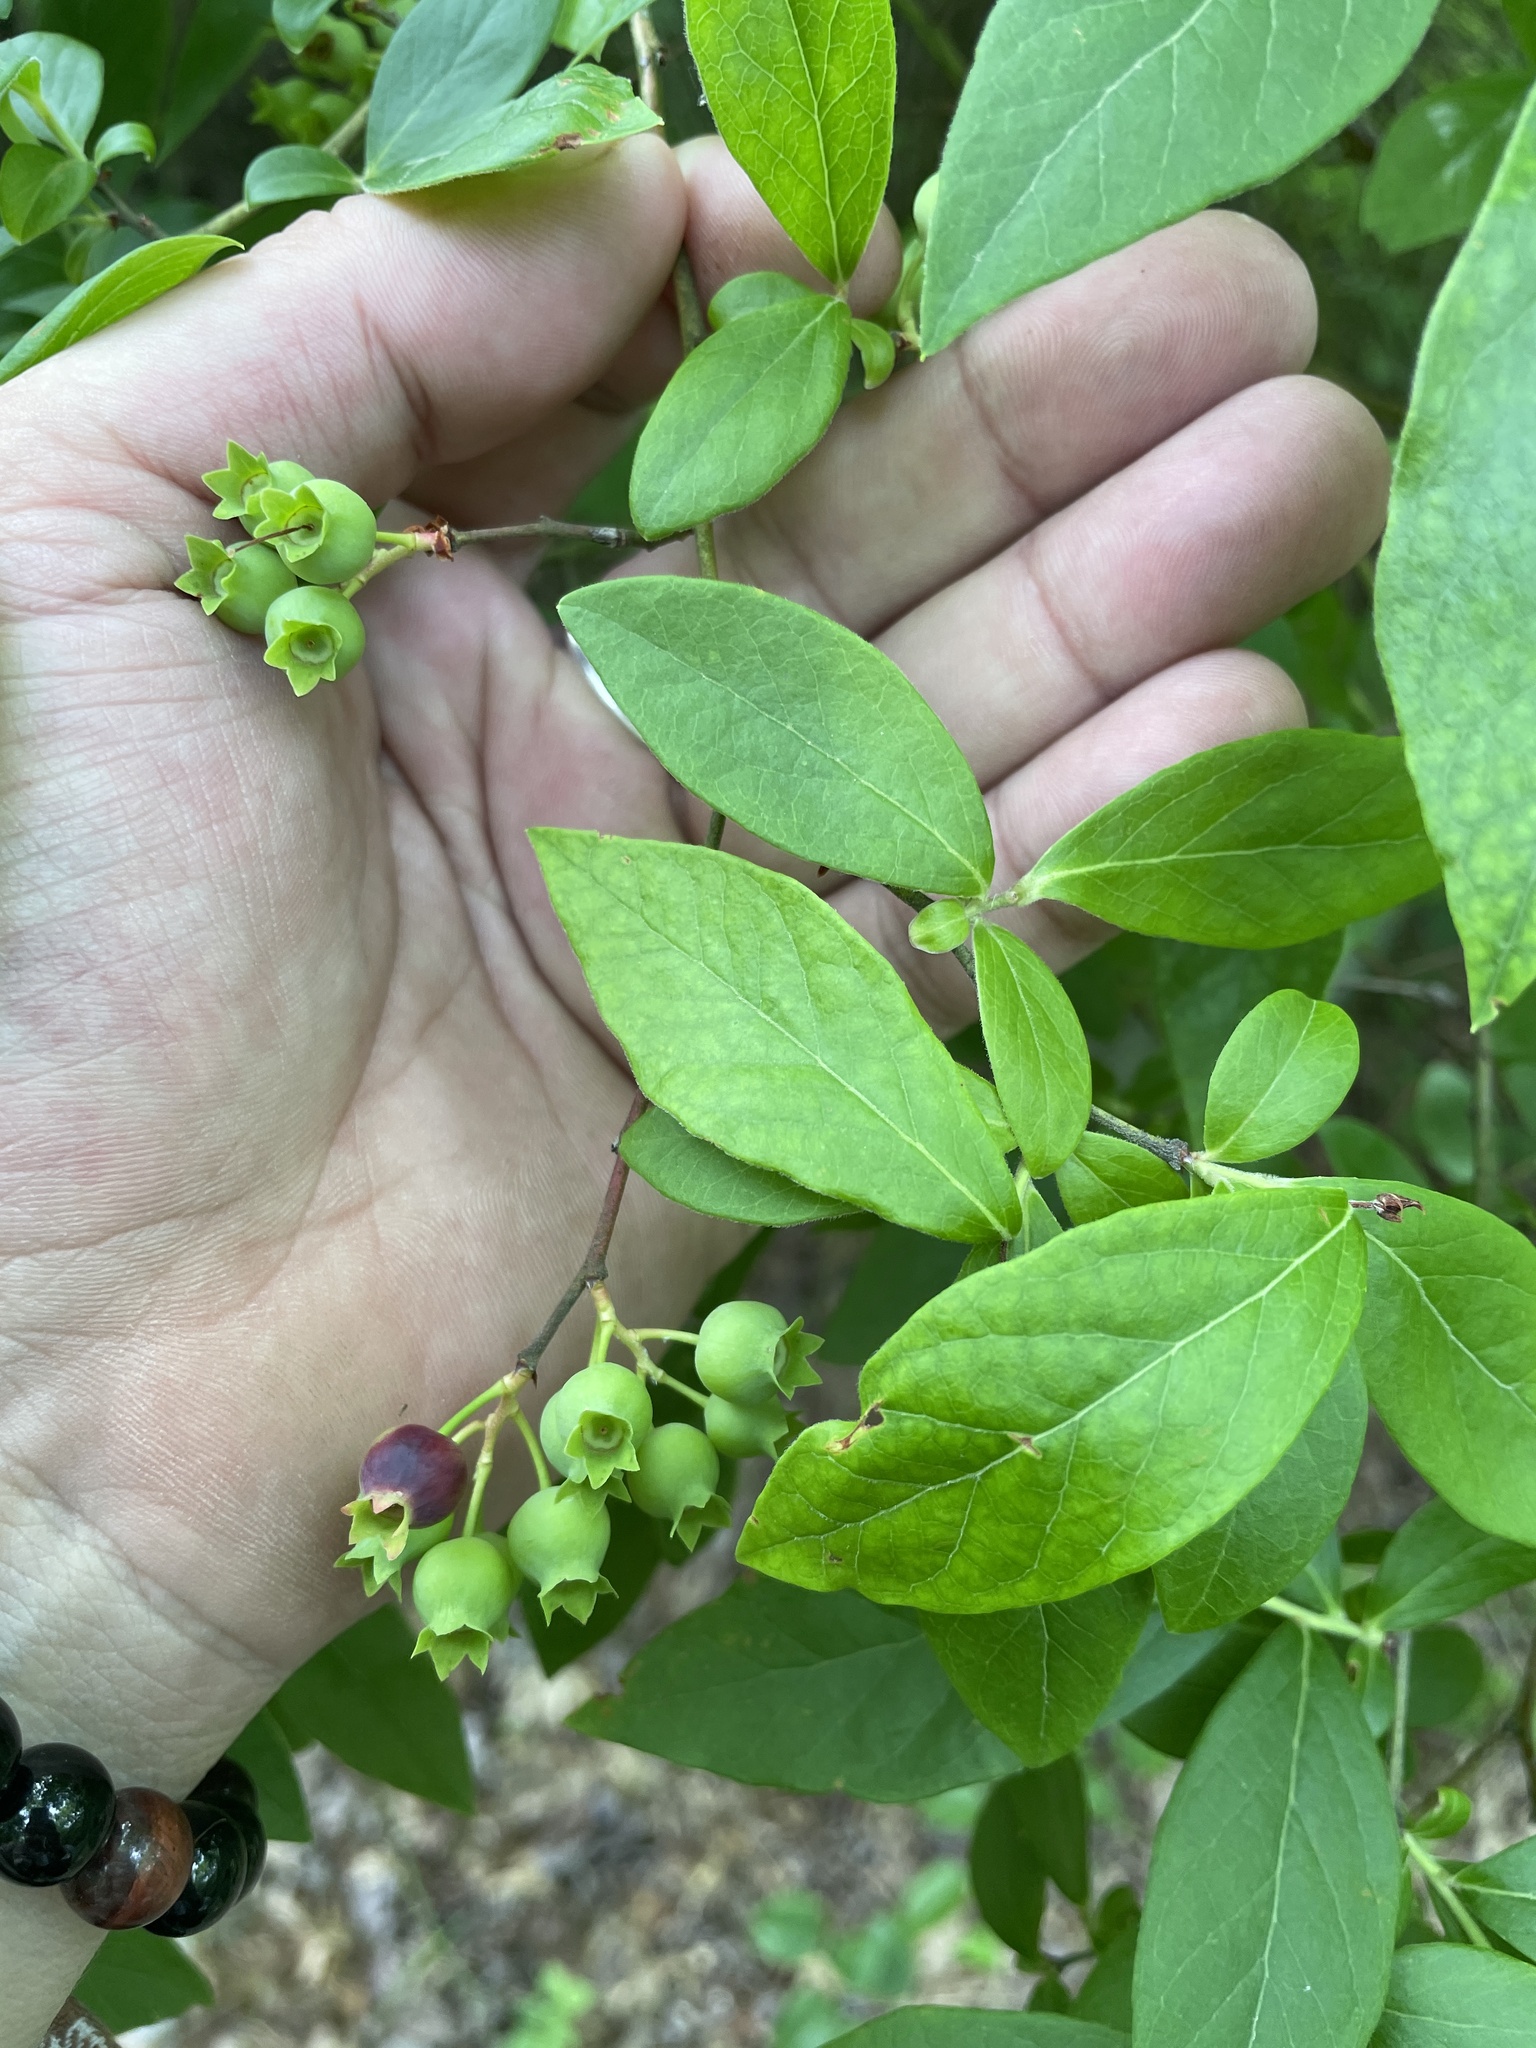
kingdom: Plantae
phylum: Tracheophyta
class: Magnoliopsida
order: Ericales
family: Ericaceae
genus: Vaccinium
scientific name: Vaccinium corymbosum
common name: Blueberry
